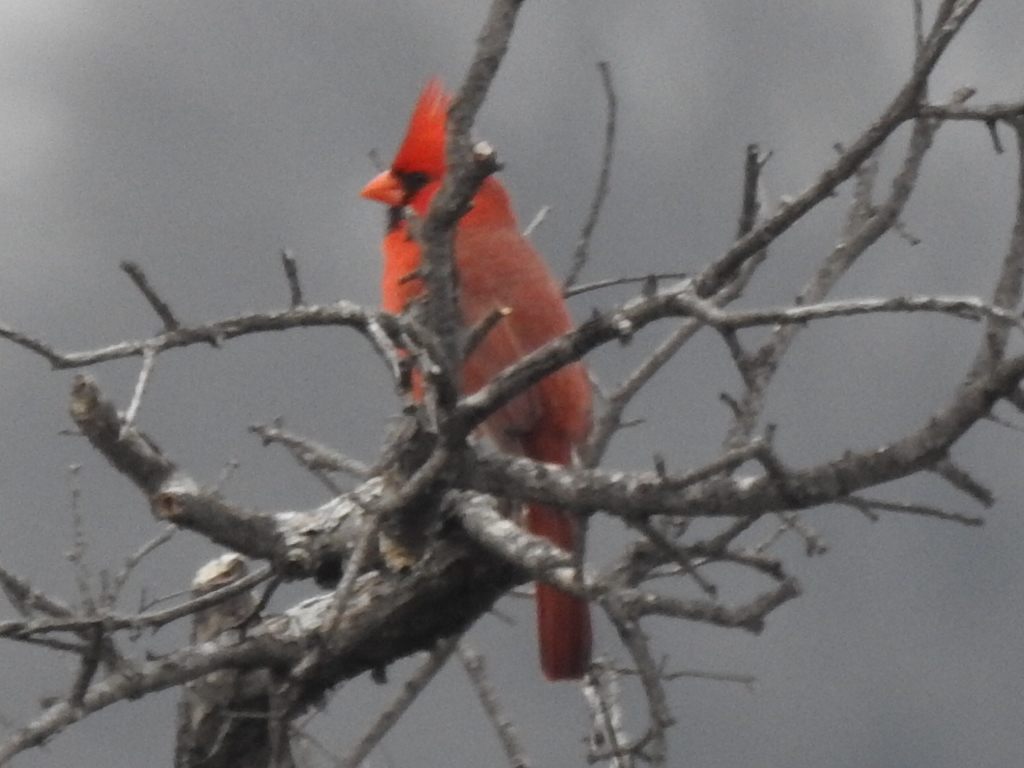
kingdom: Animalia
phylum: Chordata
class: Aves
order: Passeriformes
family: Cardinalidae
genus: Cardinalis
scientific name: Cardinalis cardinalis
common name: Northern cardinal
